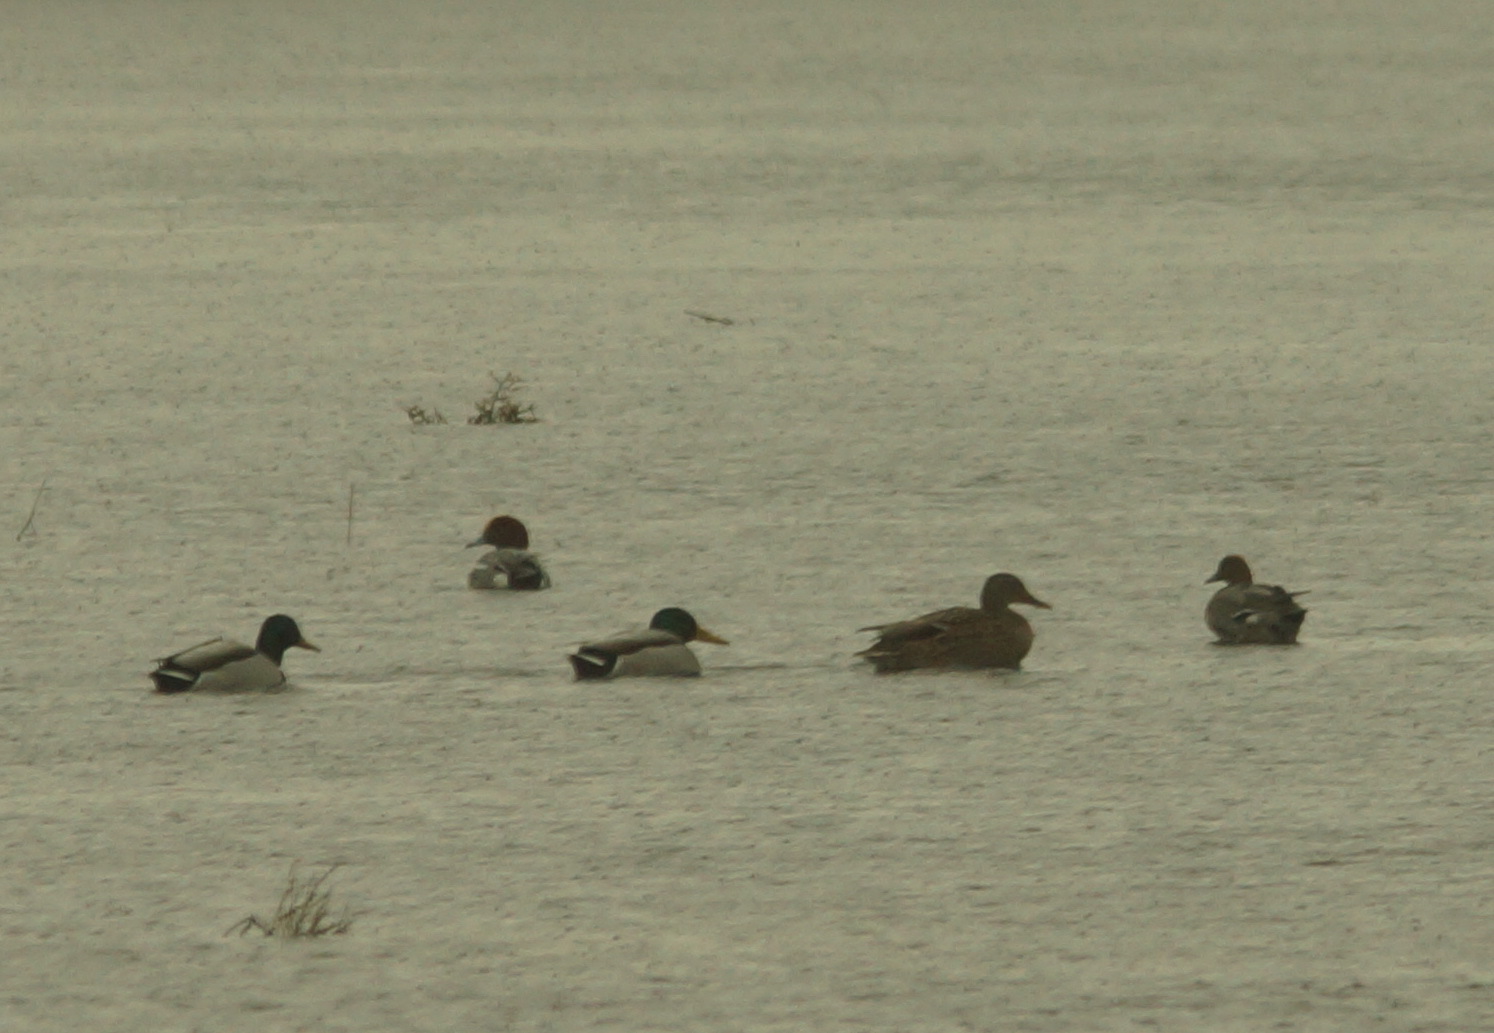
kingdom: Animalia
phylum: Chordata
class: Aves
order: Anseriformes
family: Anatidae
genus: Anas
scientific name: Anas platyrhynchos
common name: Mallard
